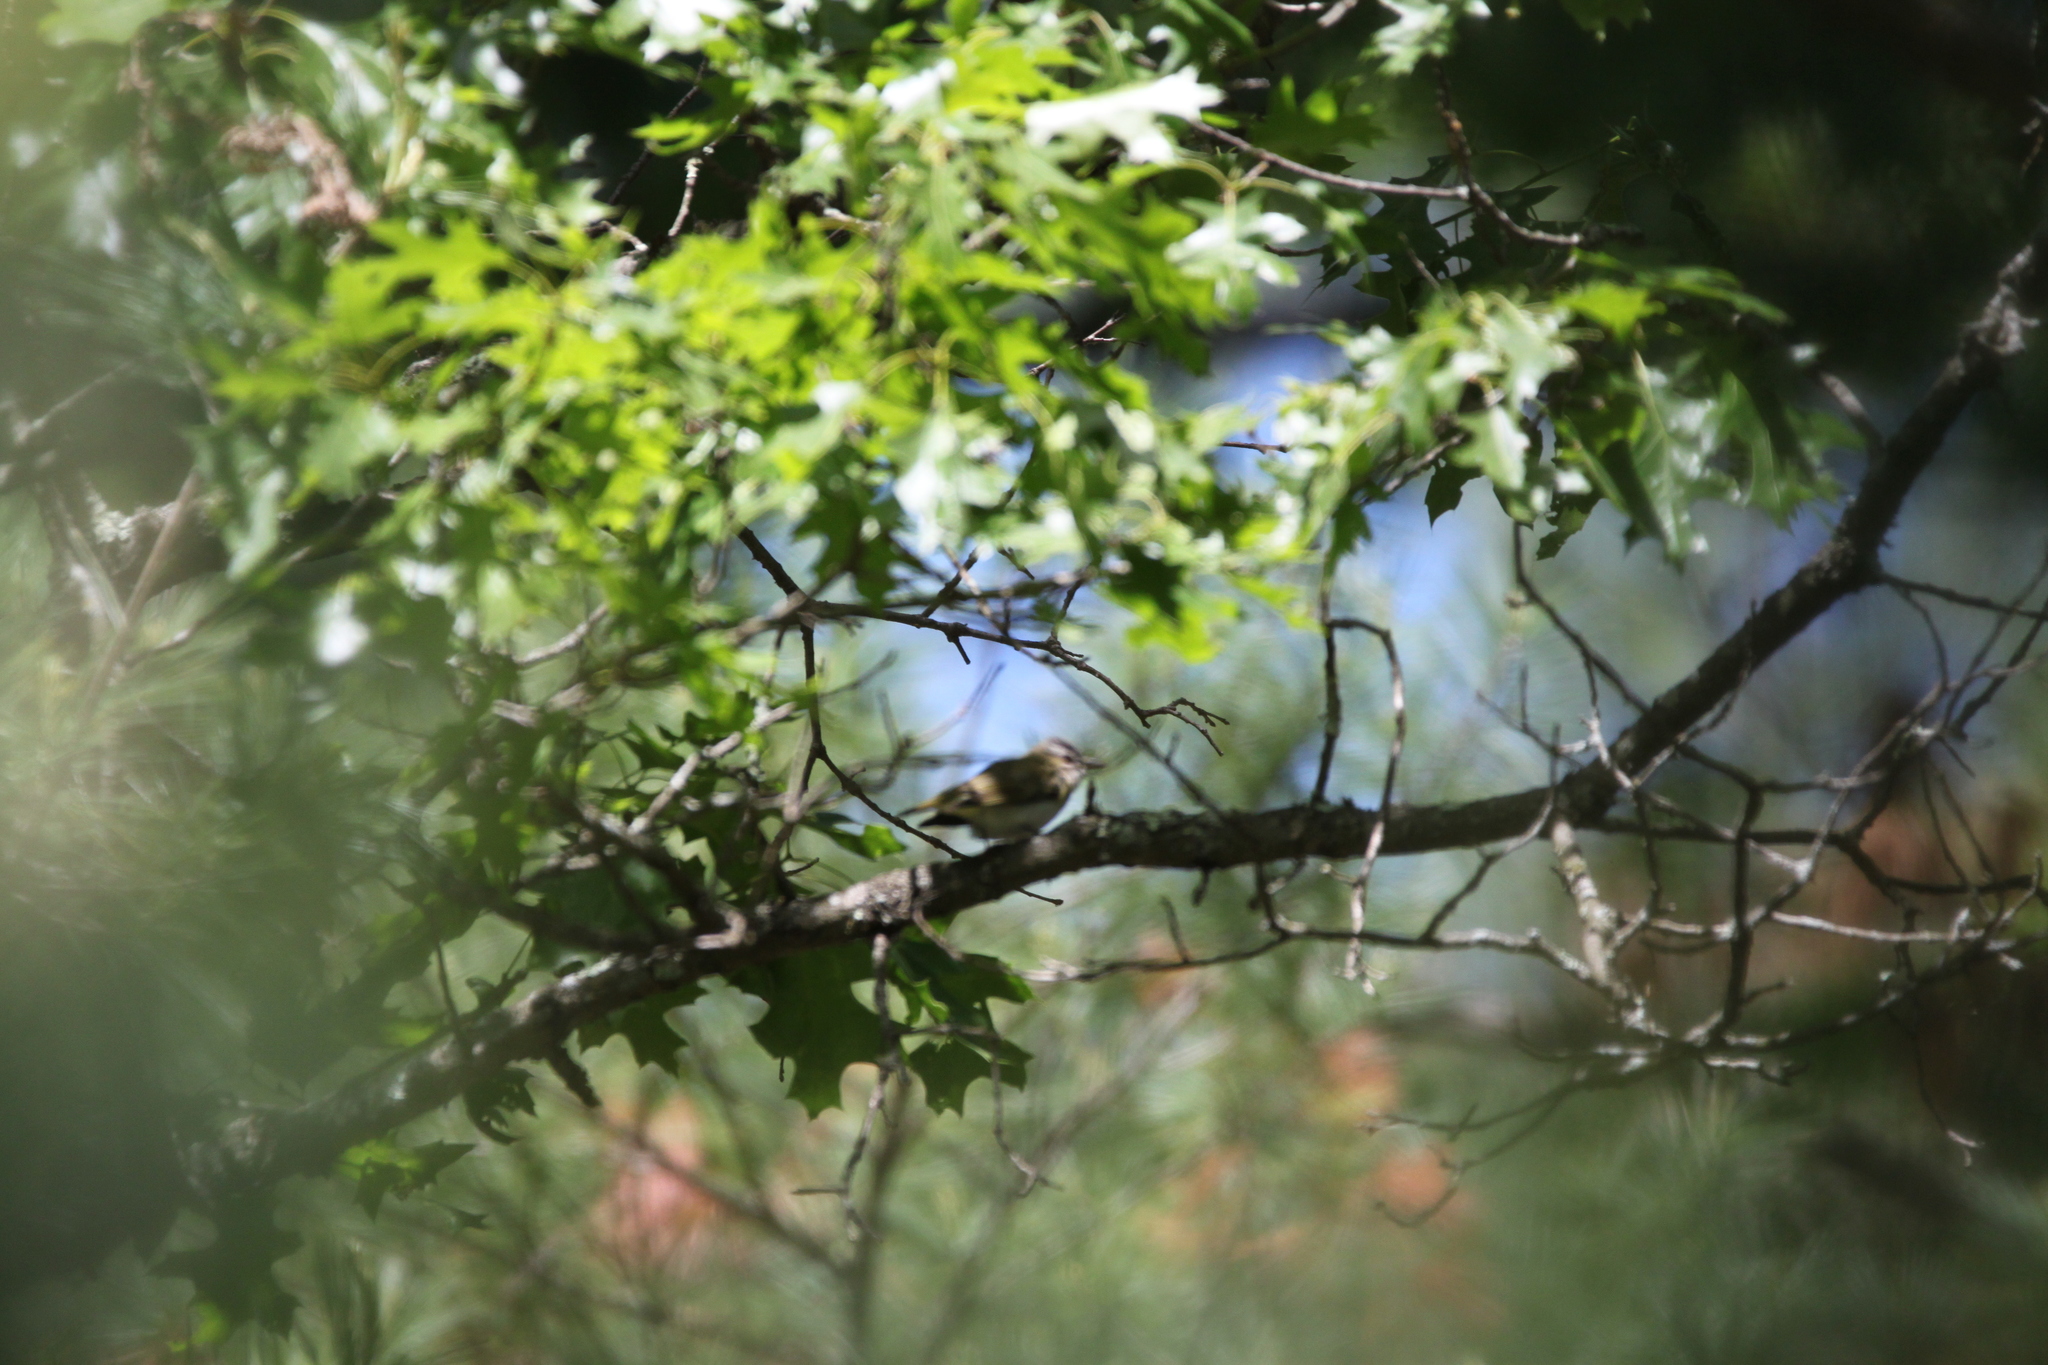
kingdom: Animalia
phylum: Chordata
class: Aves
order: Passeriformes
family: Vireonidae
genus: Vireo
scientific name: Vireo olivaceus
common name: Red-eyed vireo
